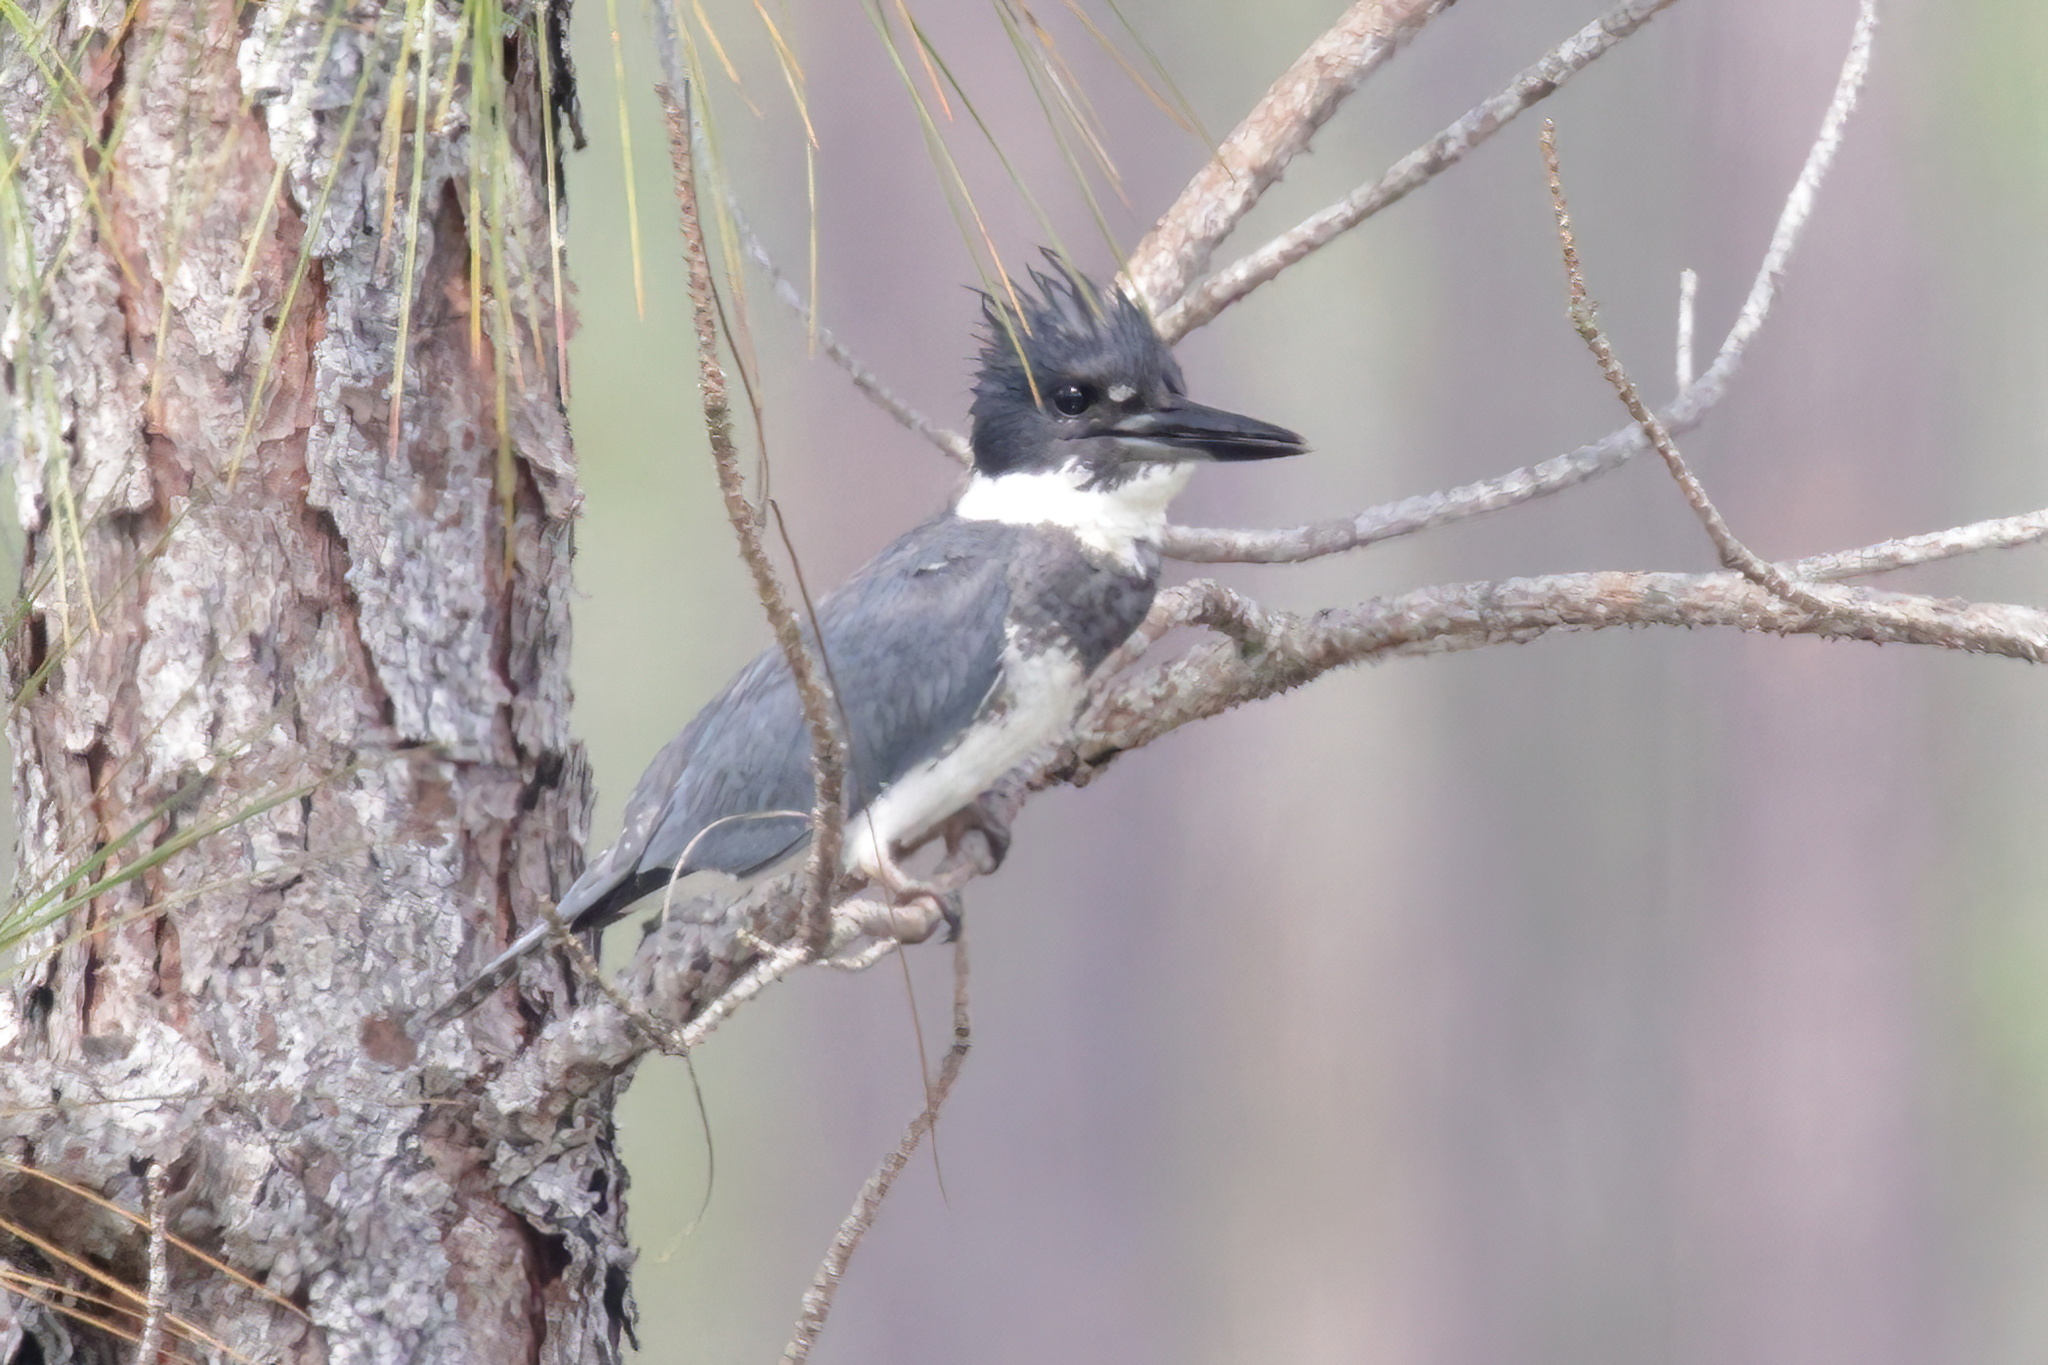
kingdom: Animalia
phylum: Chordata
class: Aves
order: Coraciiformes
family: Alcedinidae
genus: Megaceryle
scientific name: Megaceryle alcyon
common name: Belted kingfisher
